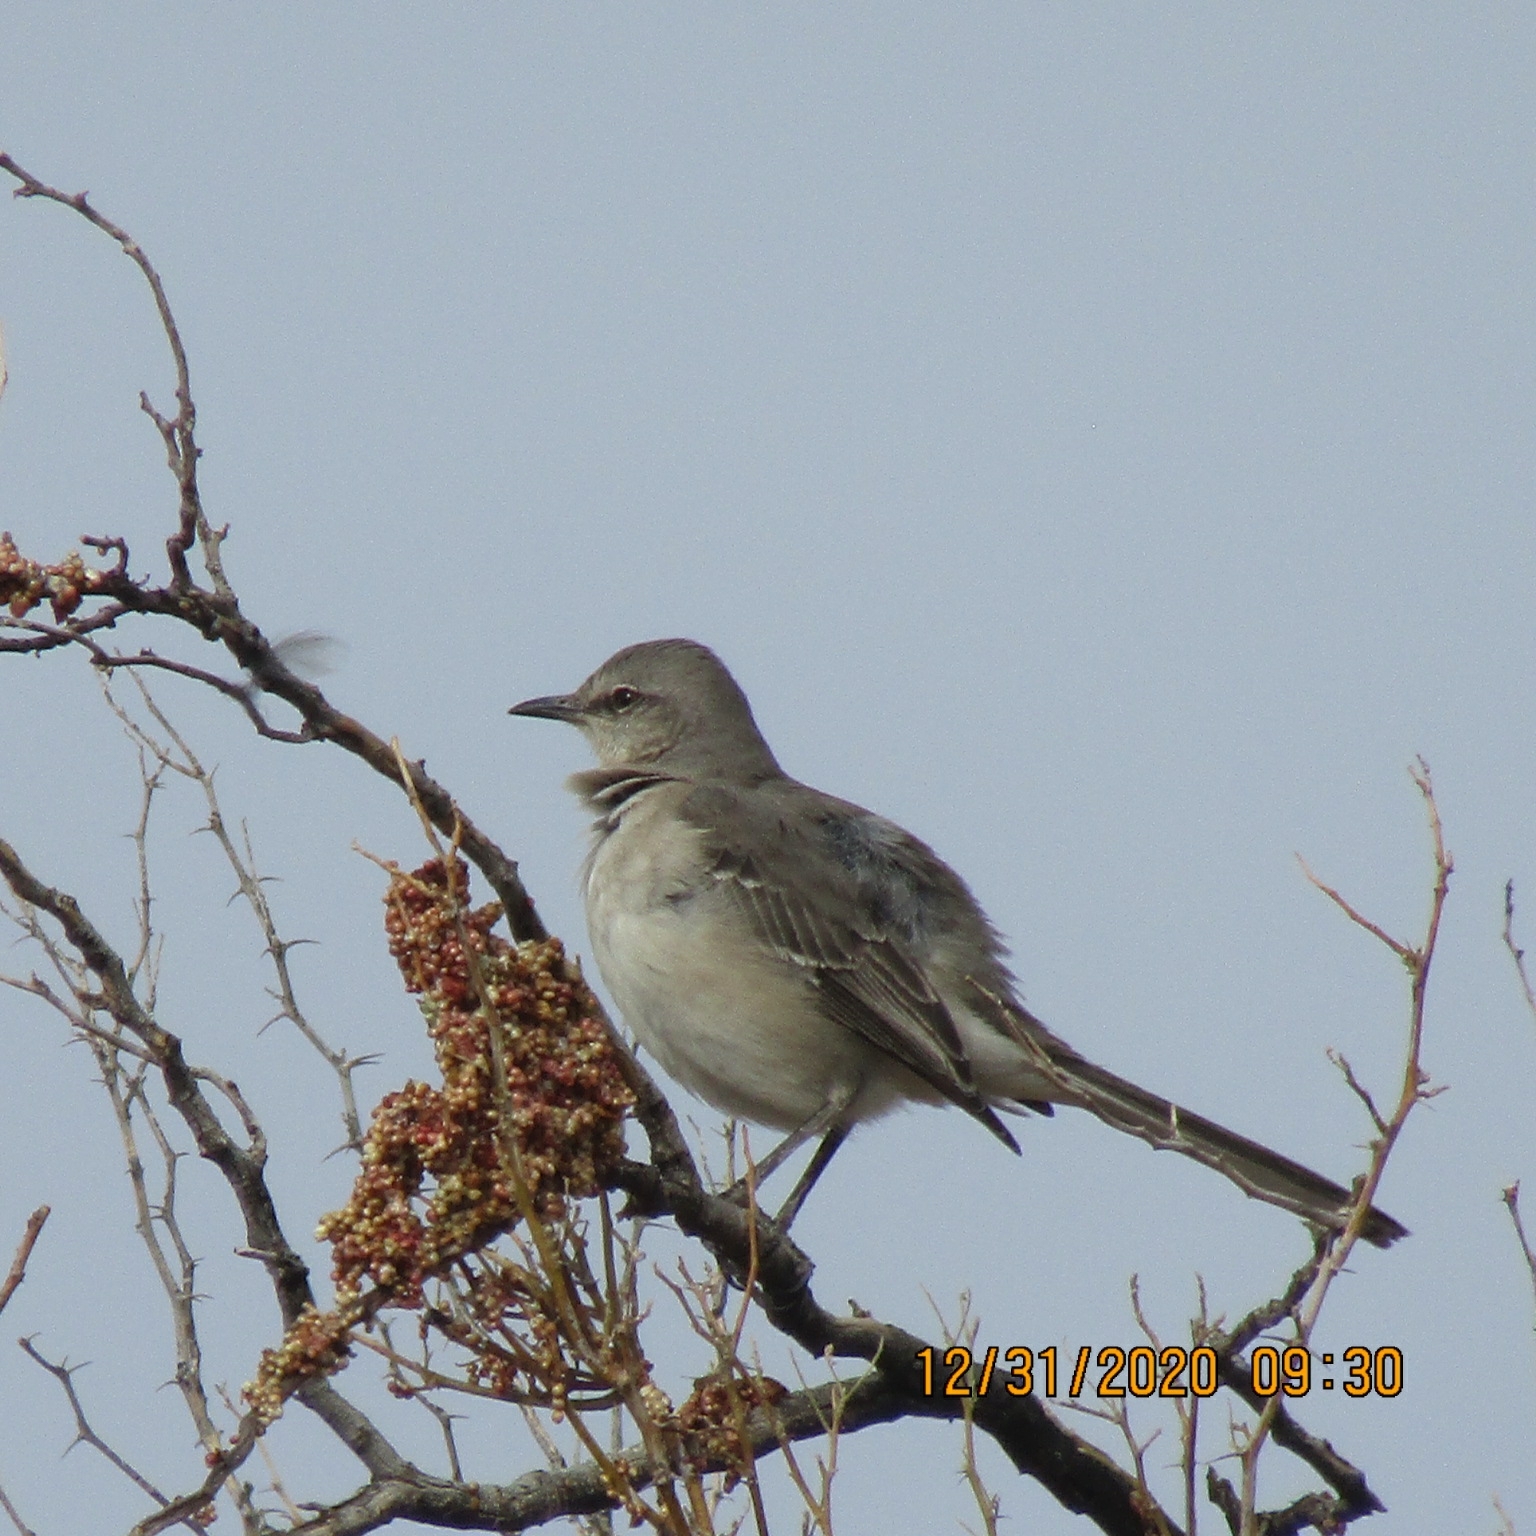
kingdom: Animalia
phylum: Chordata
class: Aves
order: Passeriformes
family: Mimidae
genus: Mimus
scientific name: Mimus polyglottos
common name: Northern mockingbird
